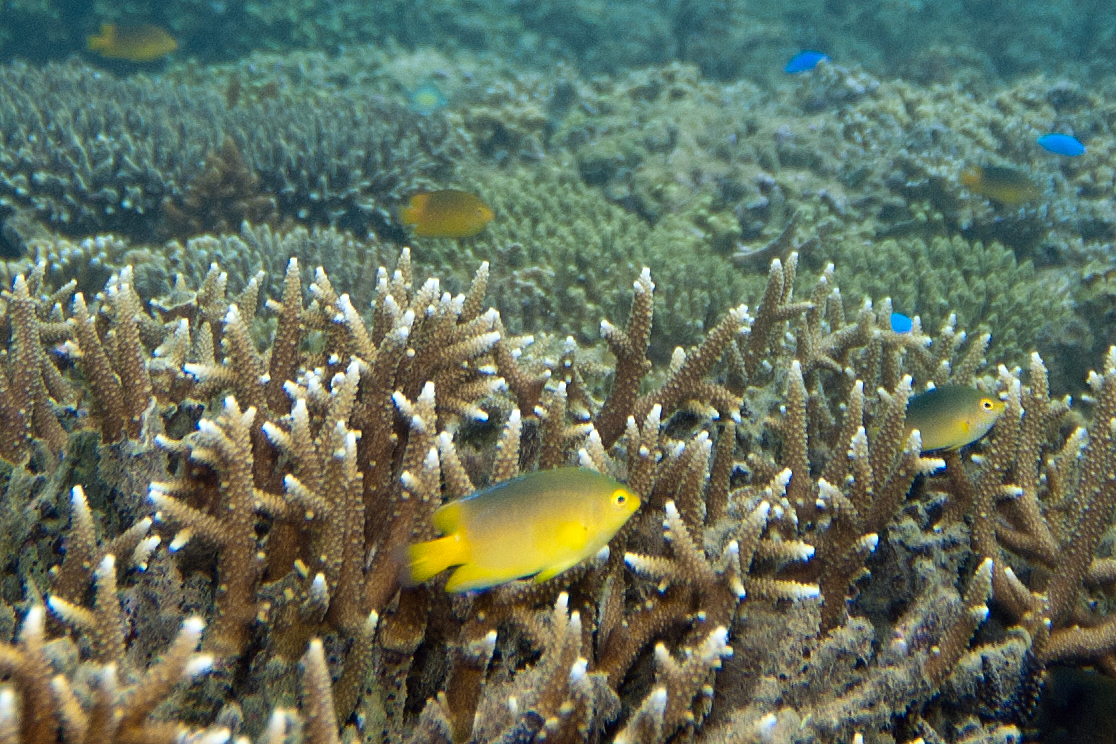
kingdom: Animalia
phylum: Chordata
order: Perciformes
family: Pomacentridae
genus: Pomacentrus
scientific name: Pomacentrus maafu
